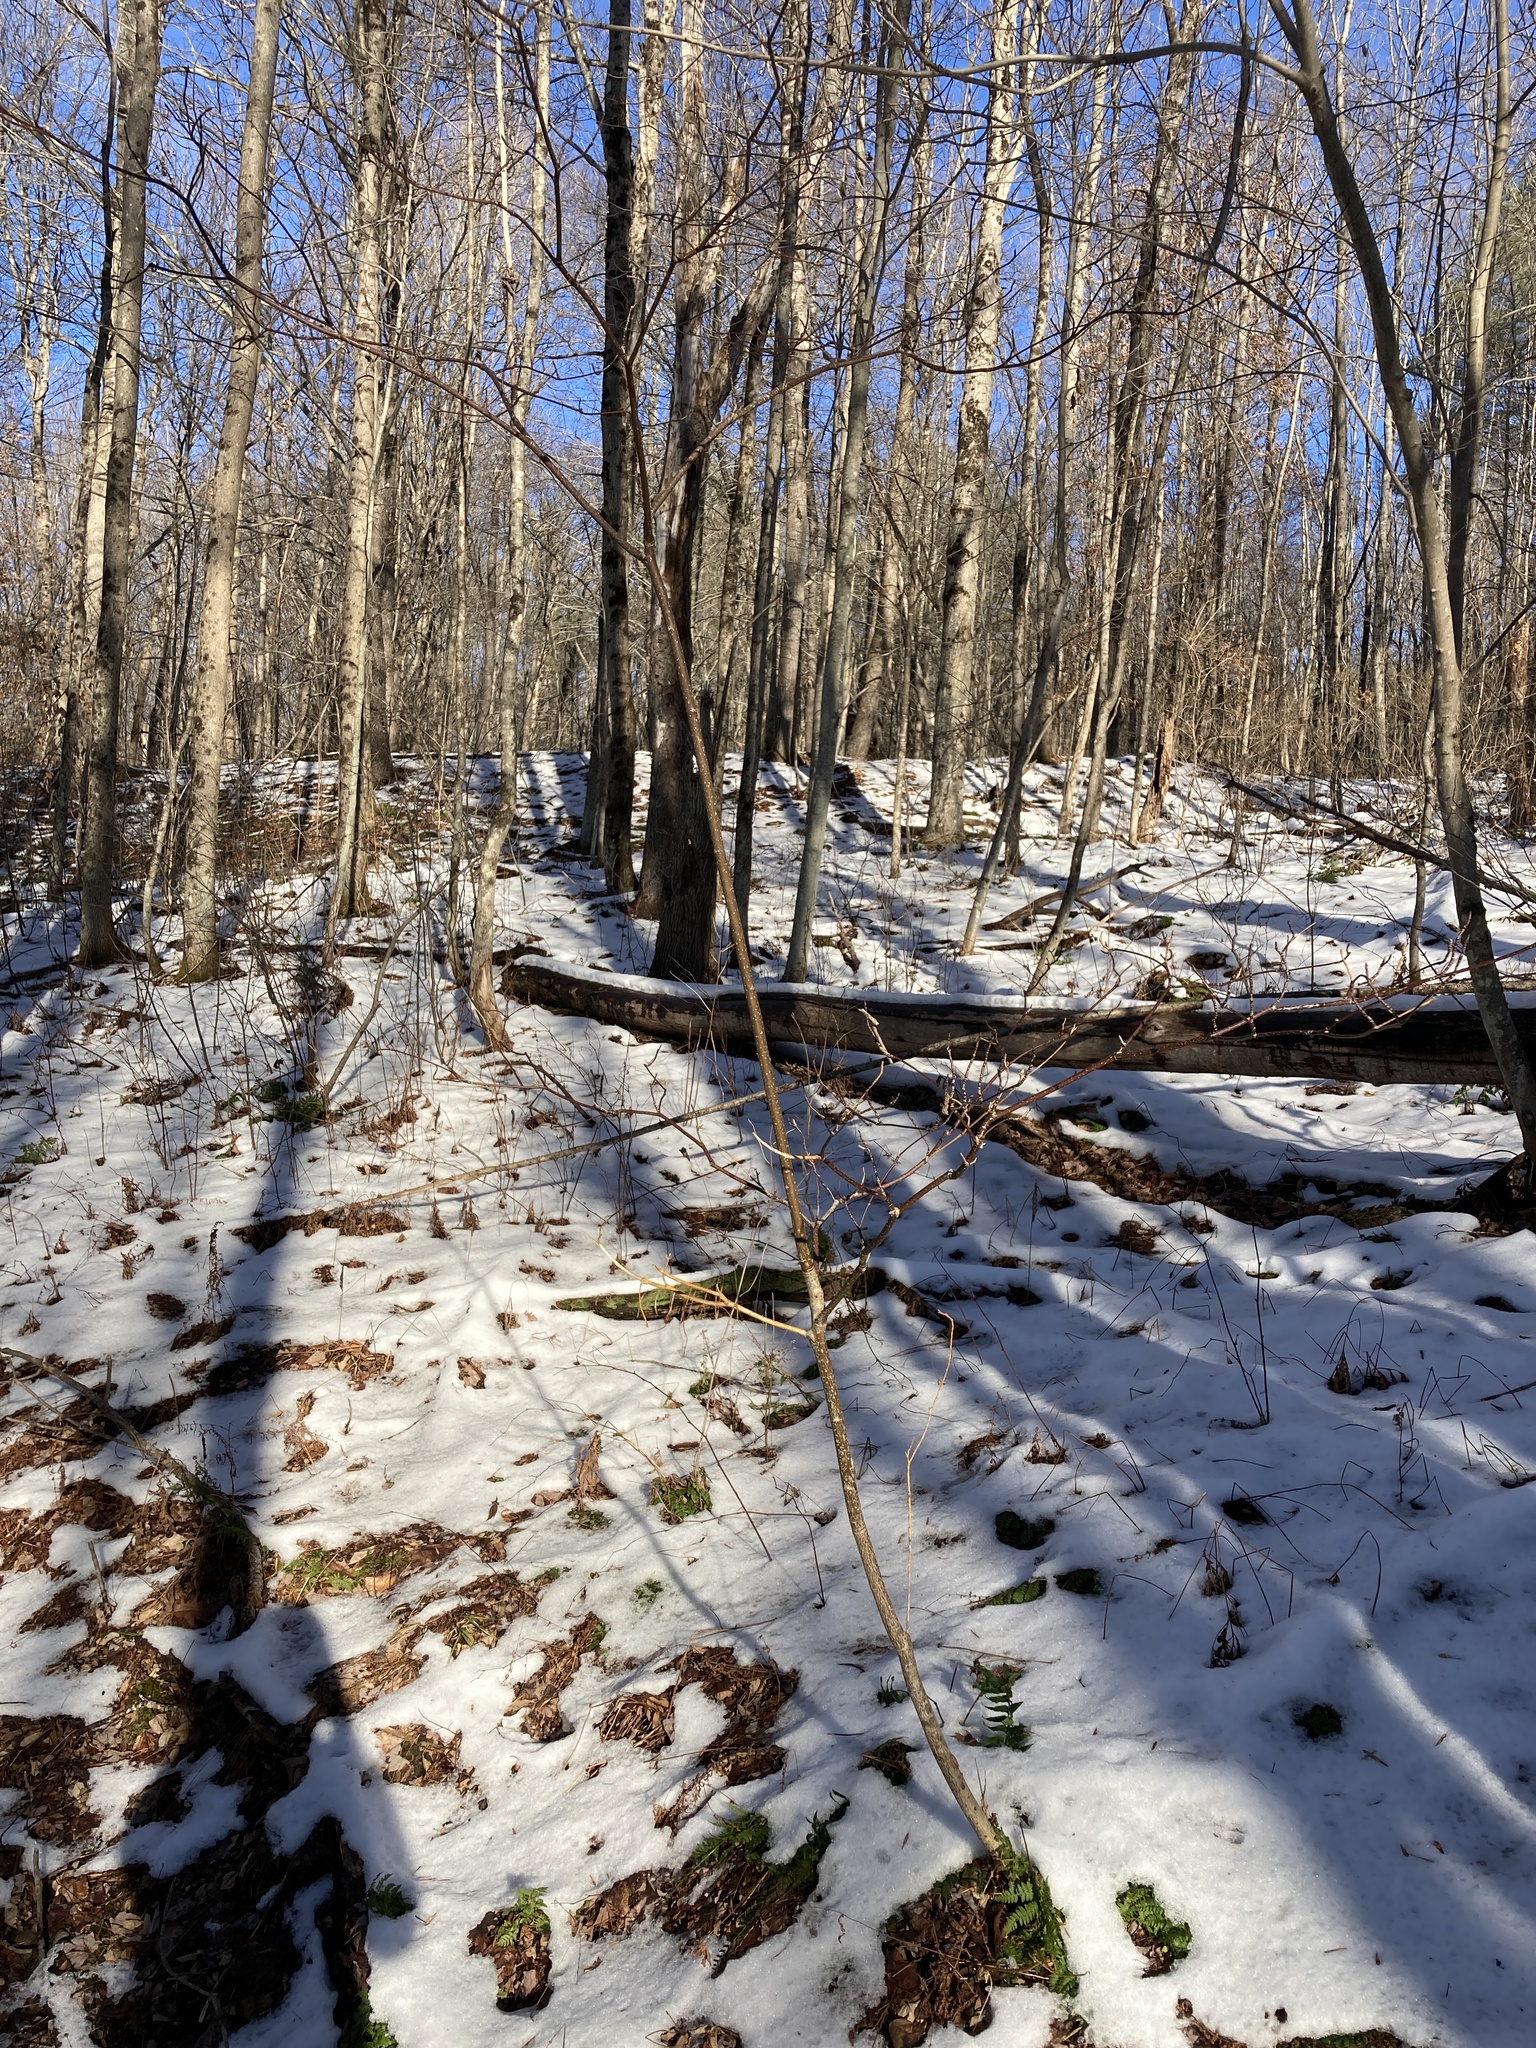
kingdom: Plantae
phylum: Tracheophyta
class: Magnoliopsida
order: Cornales
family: Cornaceae
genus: Cornus
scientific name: Cornus alternifolia
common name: Pagoda dogwood
